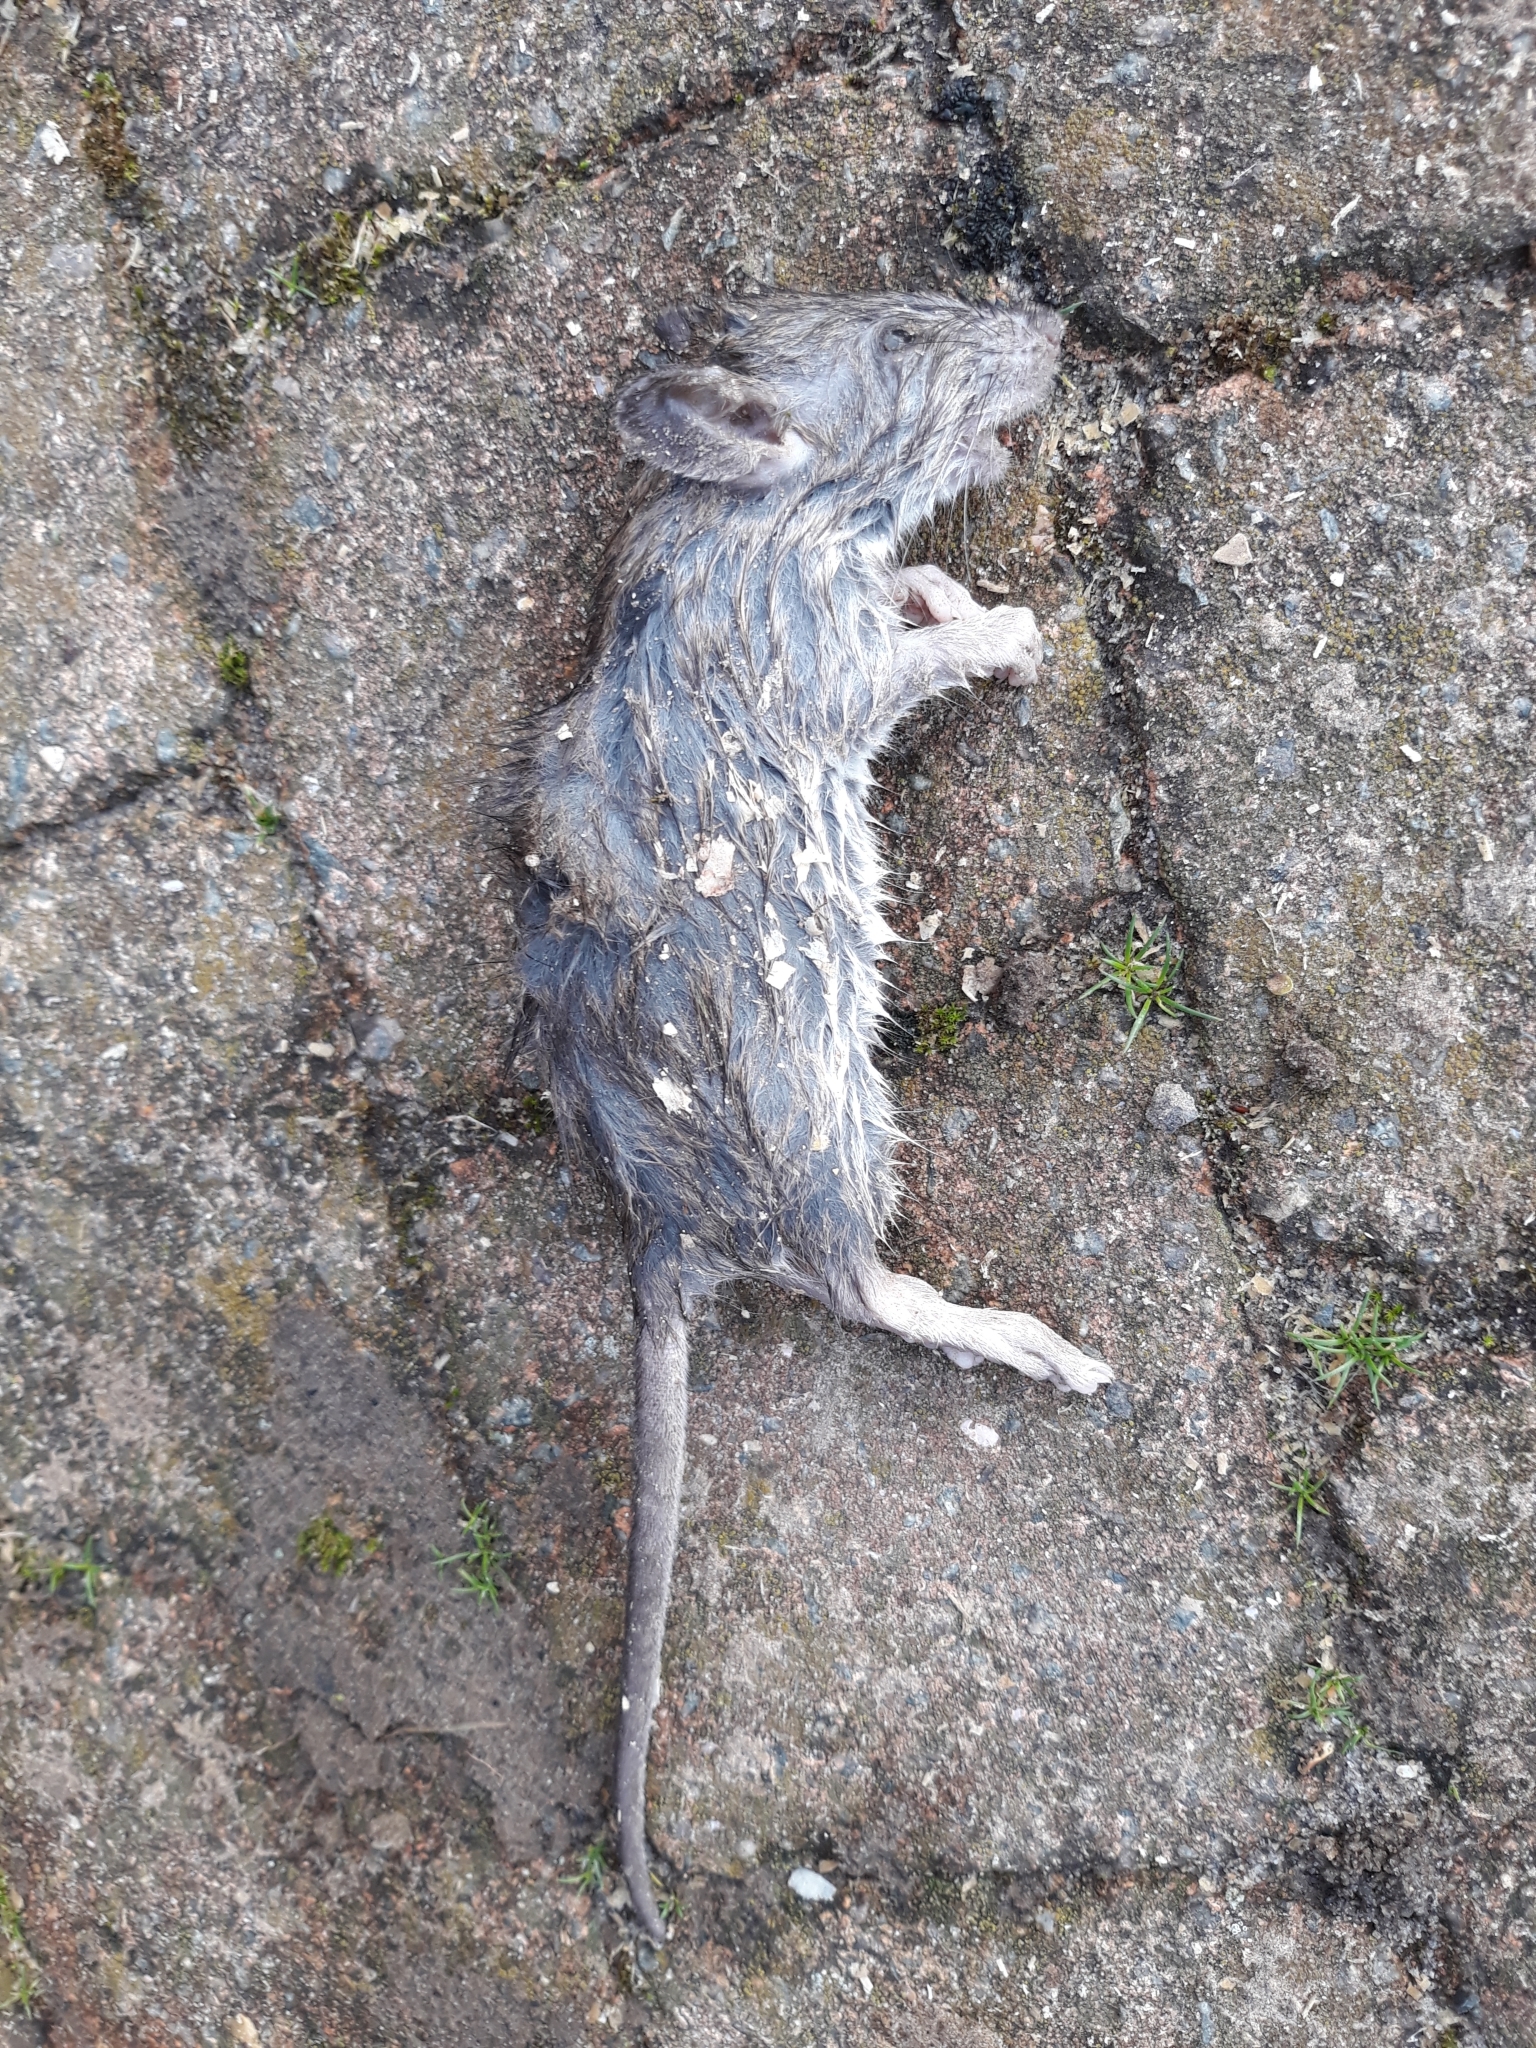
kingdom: Animalia
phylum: Chordata
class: Mammalia
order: Rodentia
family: Muridae
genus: Rattus
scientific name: Rattus rattus
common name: Black rat
